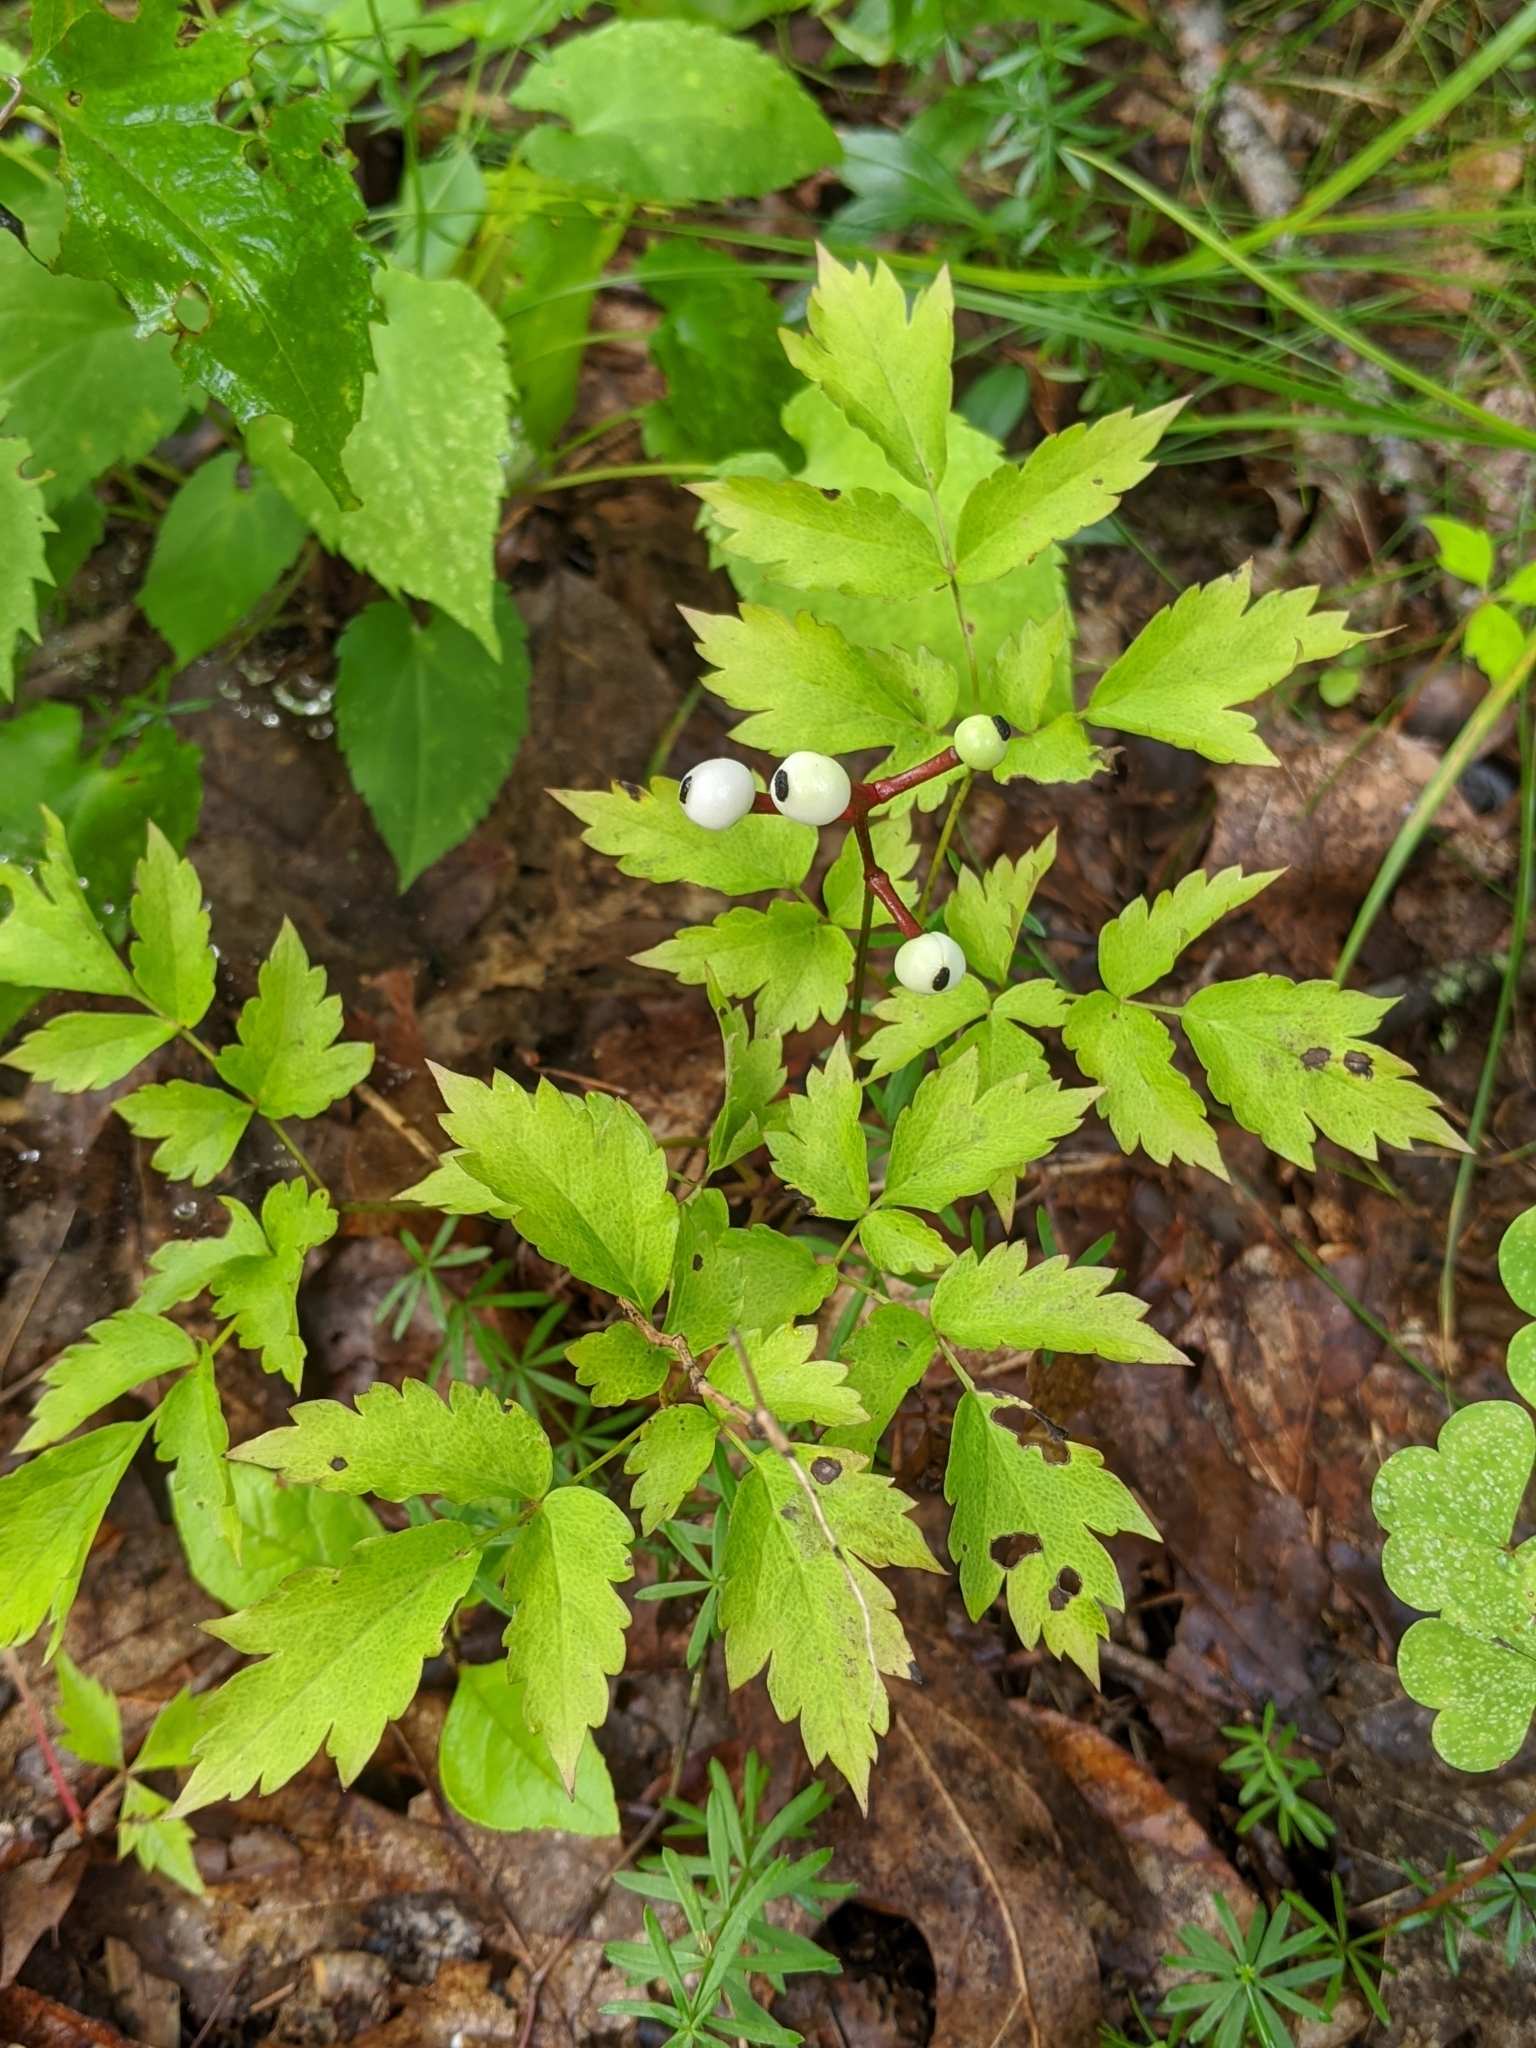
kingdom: Plantae
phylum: Tracheophyta
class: Magnoliopsida
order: Ranunculales
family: Ranunculaceae
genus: Actaea
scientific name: Actaea pachypoda
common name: Doll's-eyes
